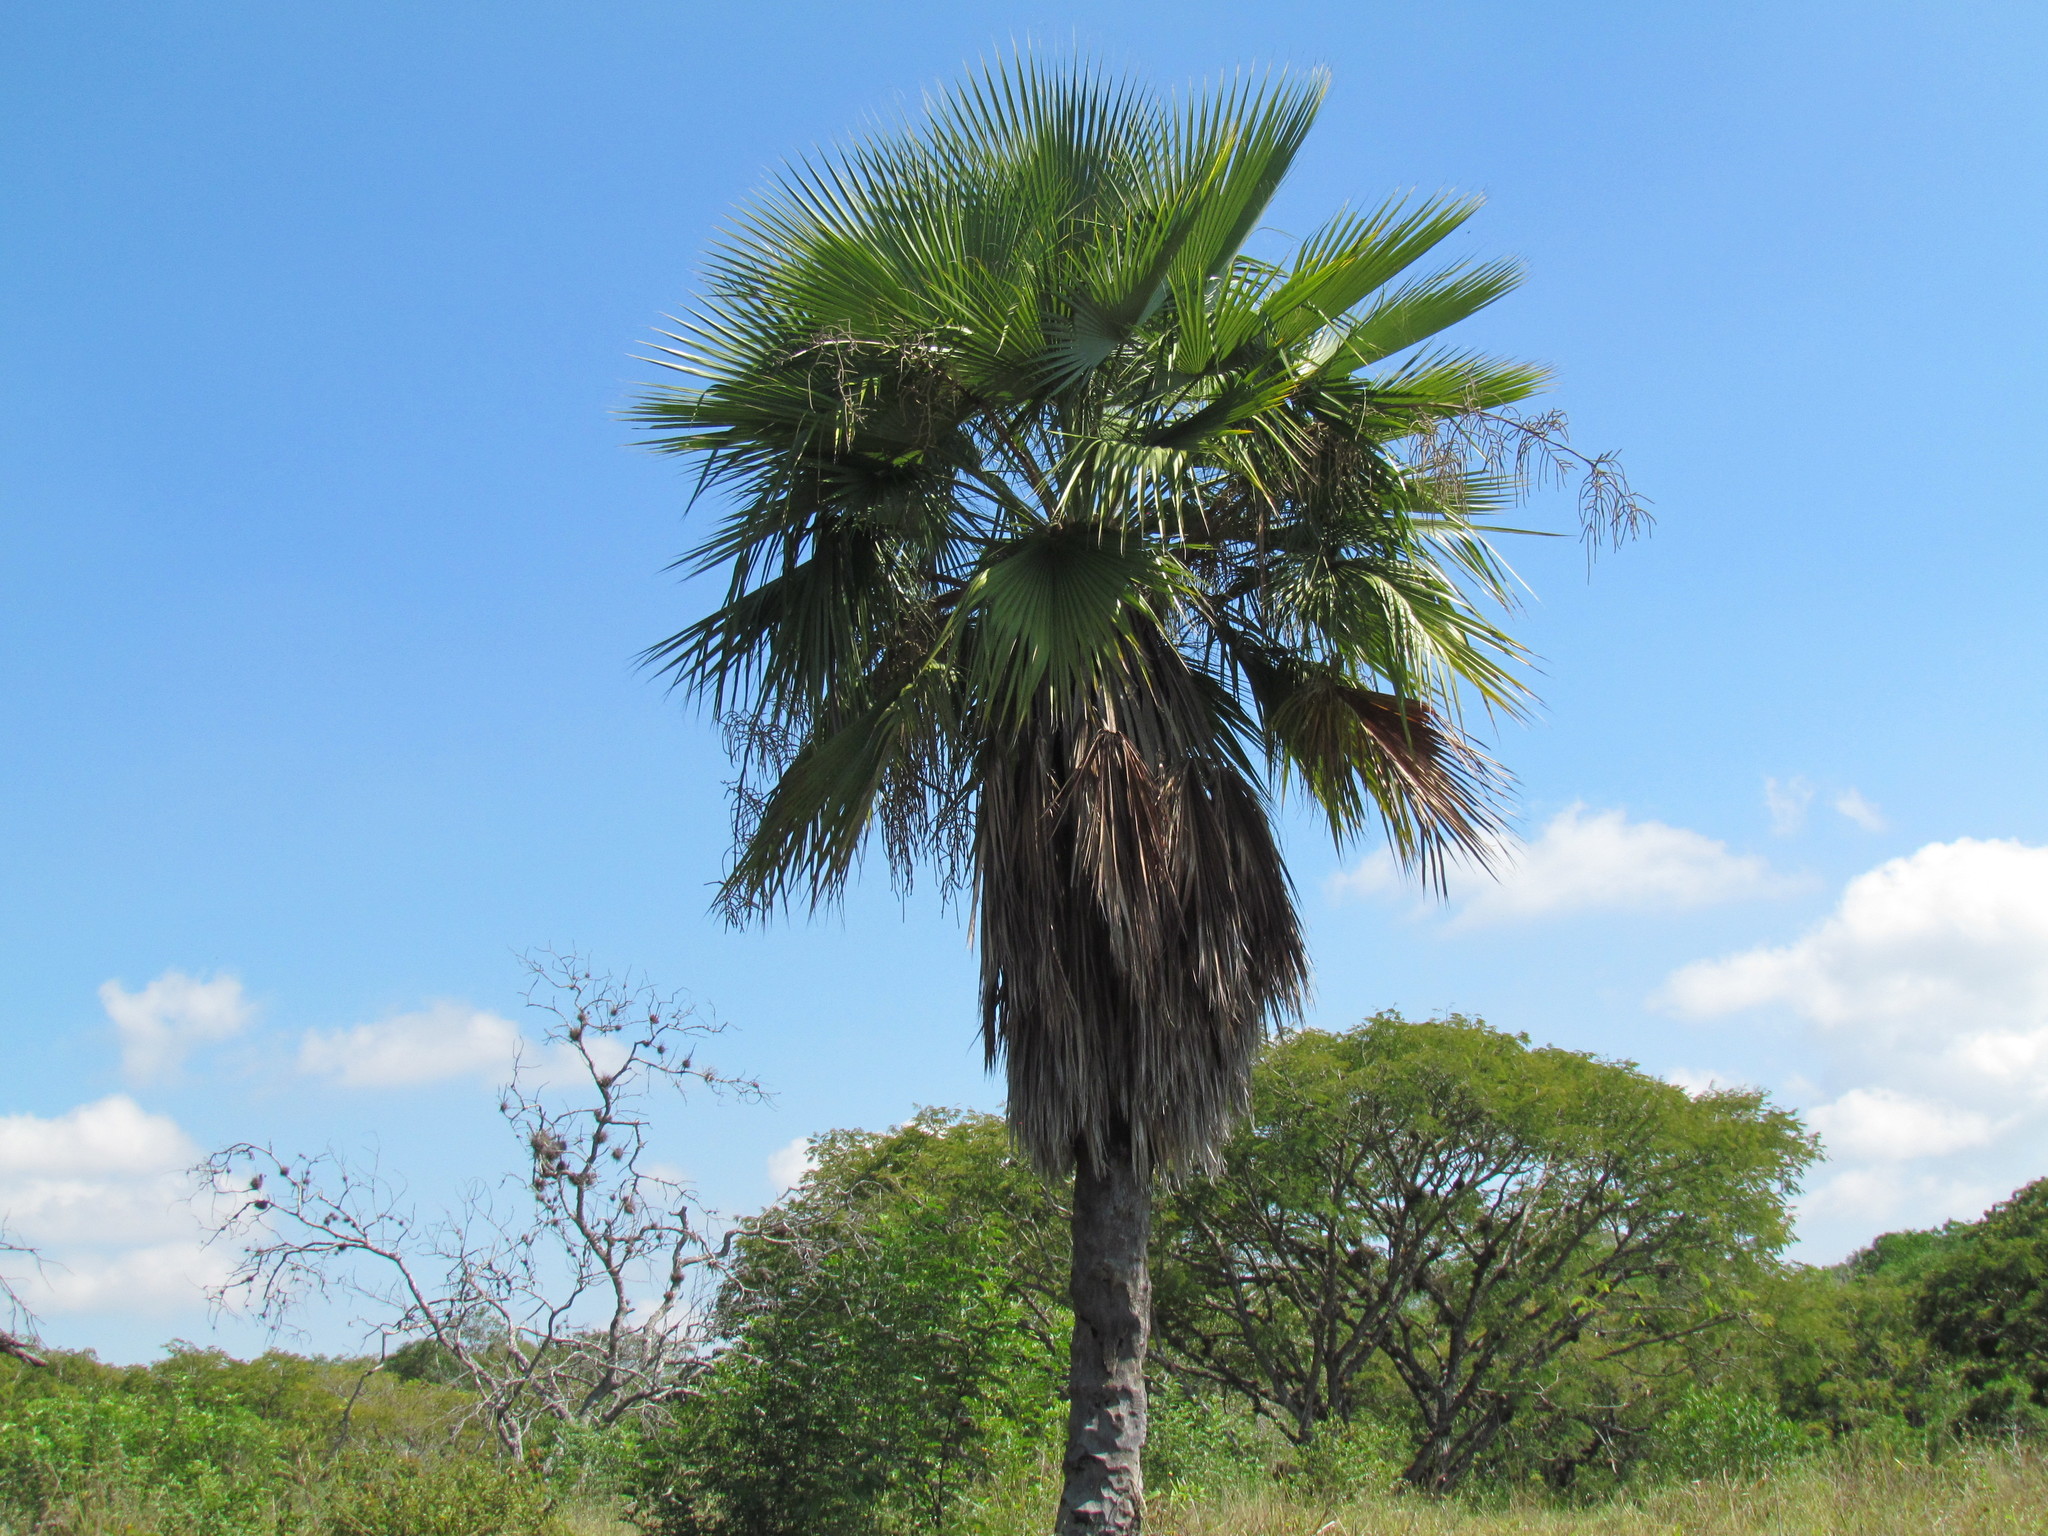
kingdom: Plantae
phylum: Tracheophyta
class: Liliopsida
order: Arecales
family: Arecaceae
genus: Brahea
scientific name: Brahea dulcis
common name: Apak palm
